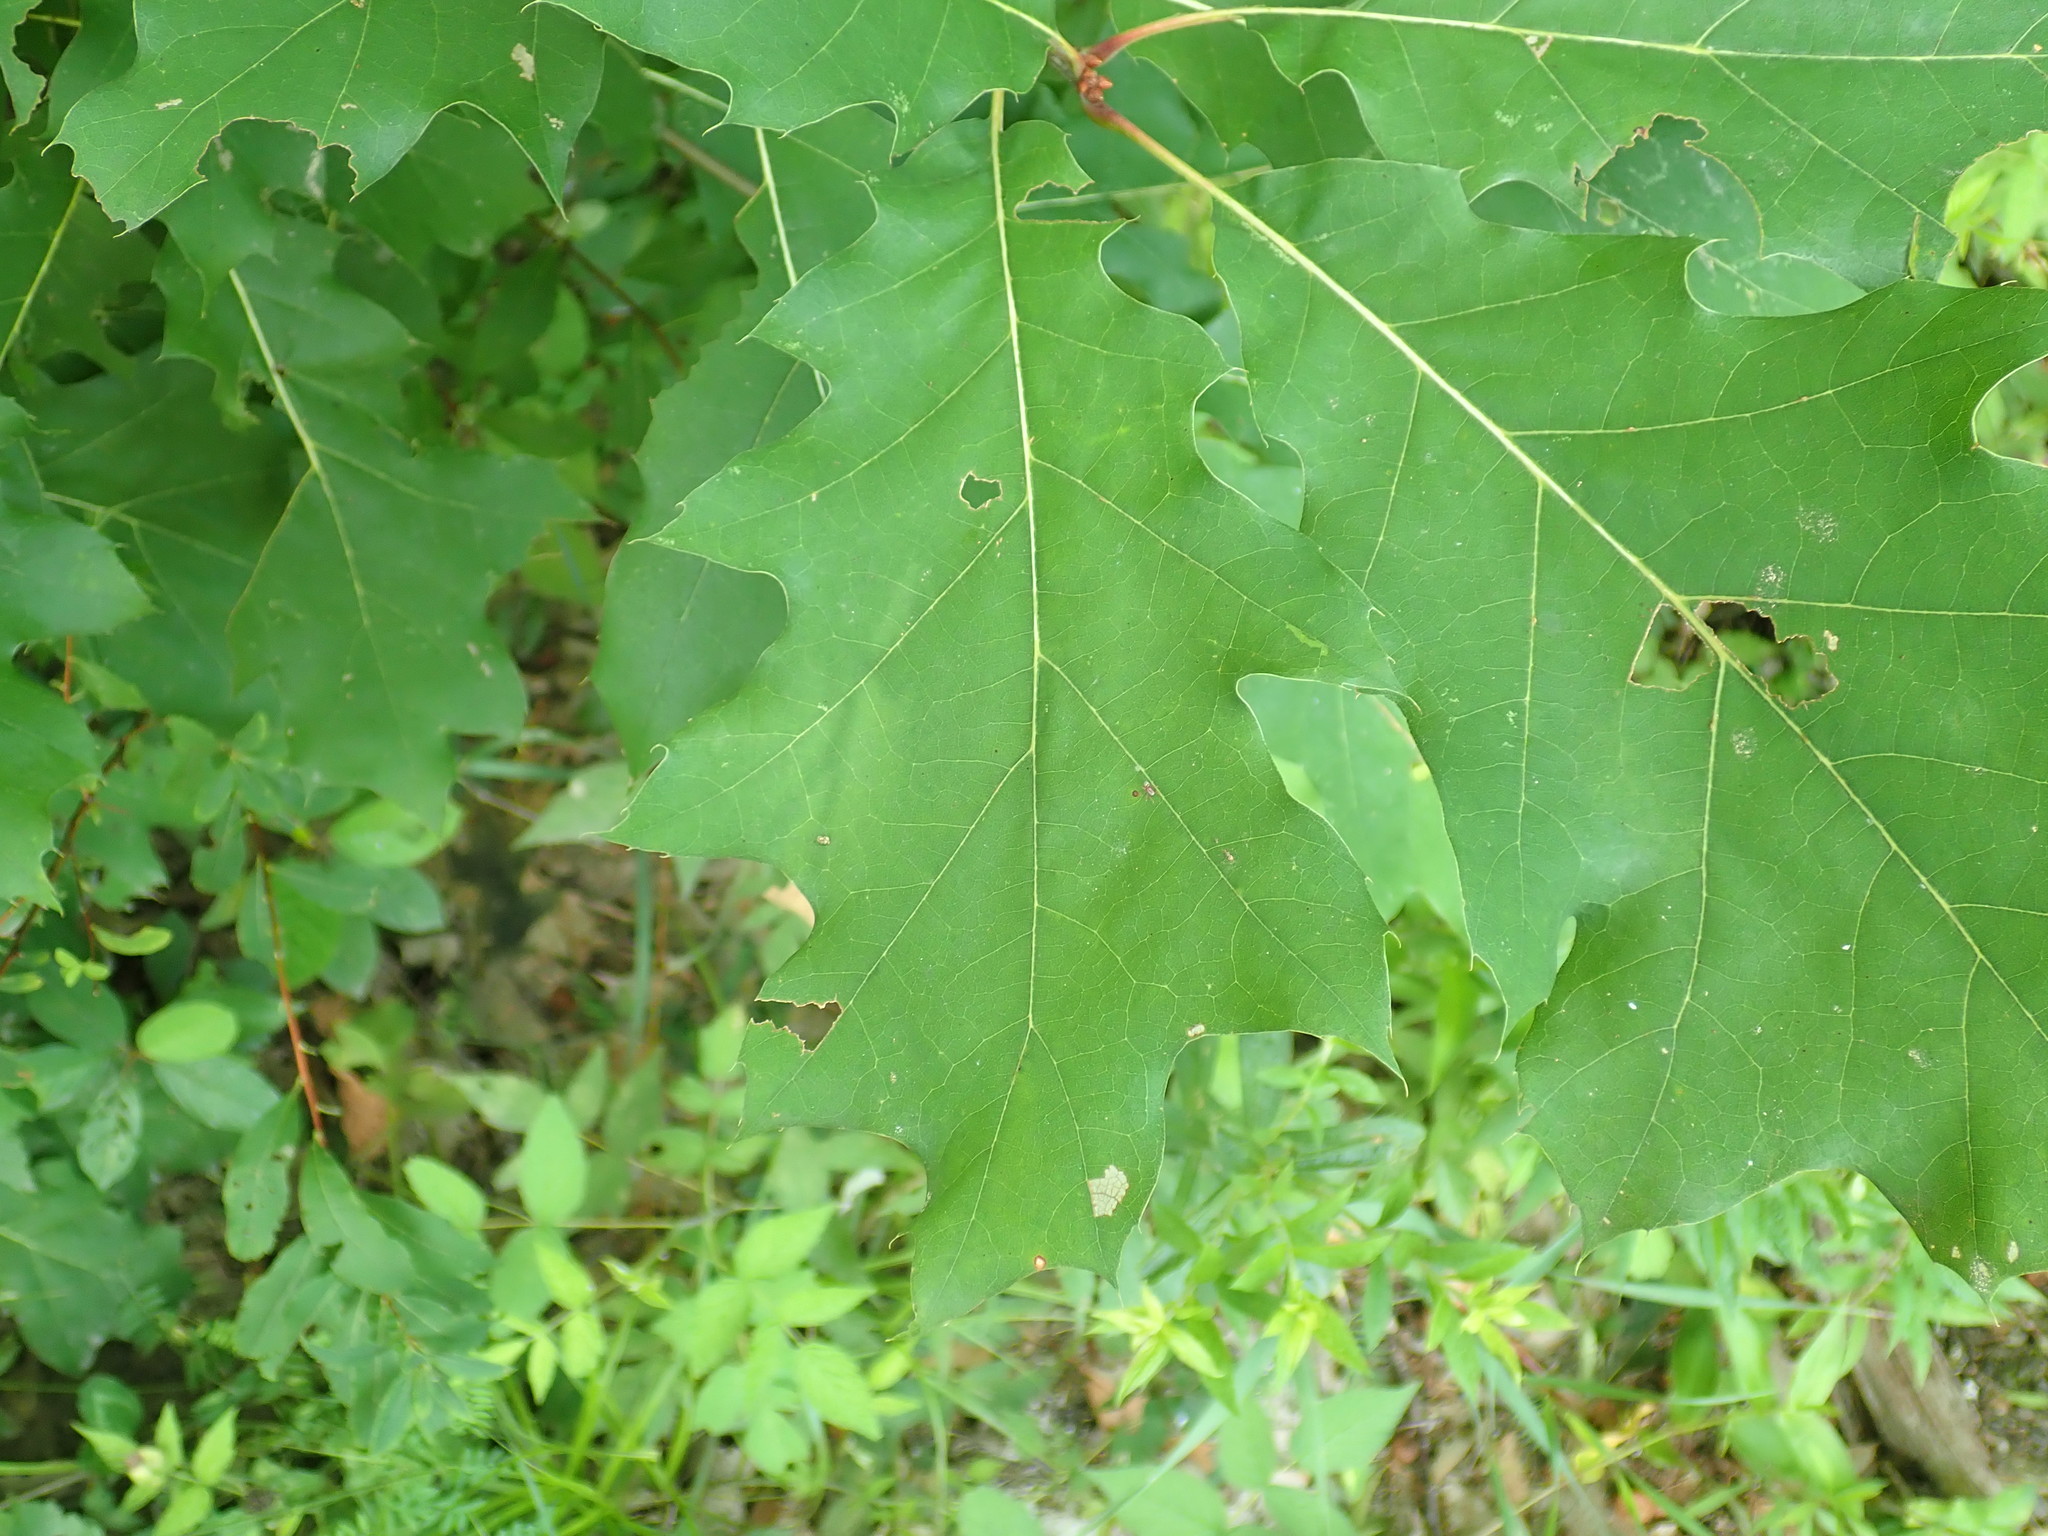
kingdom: Plantae
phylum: Tracheophyta
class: Magnoliopsida
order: Fagales
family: Fagaceae
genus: Quercus
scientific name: Quercus rubra
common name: Red oak
